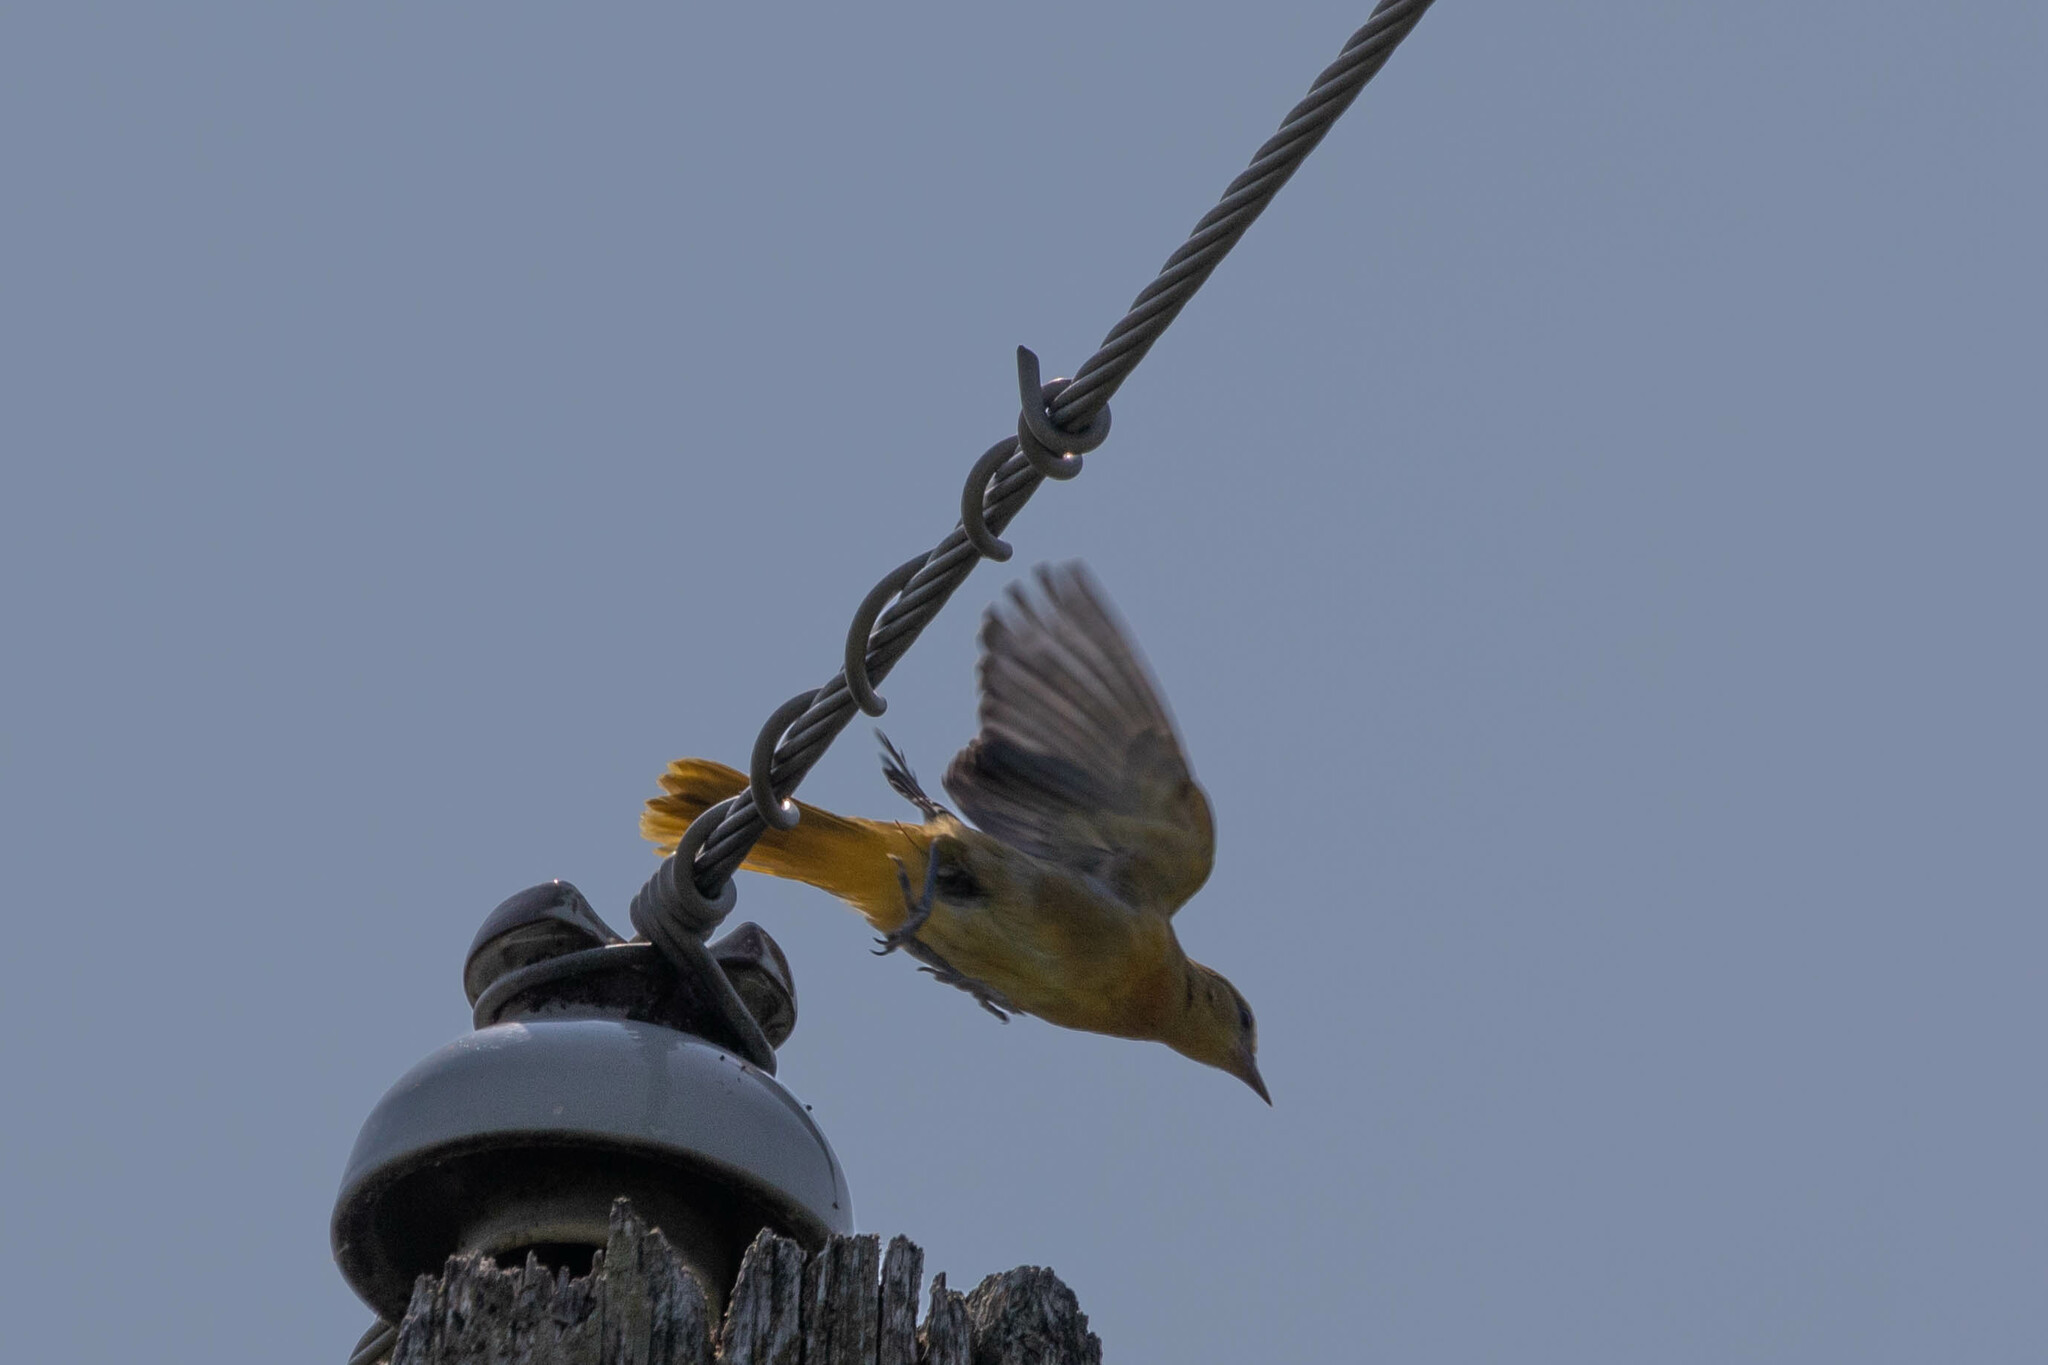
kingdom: Animalia
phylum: Chordata
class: Aves
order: Passeriformes
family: Icteridae
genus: Icterus
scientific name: Icterus galbula
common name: Baltimore oriole
